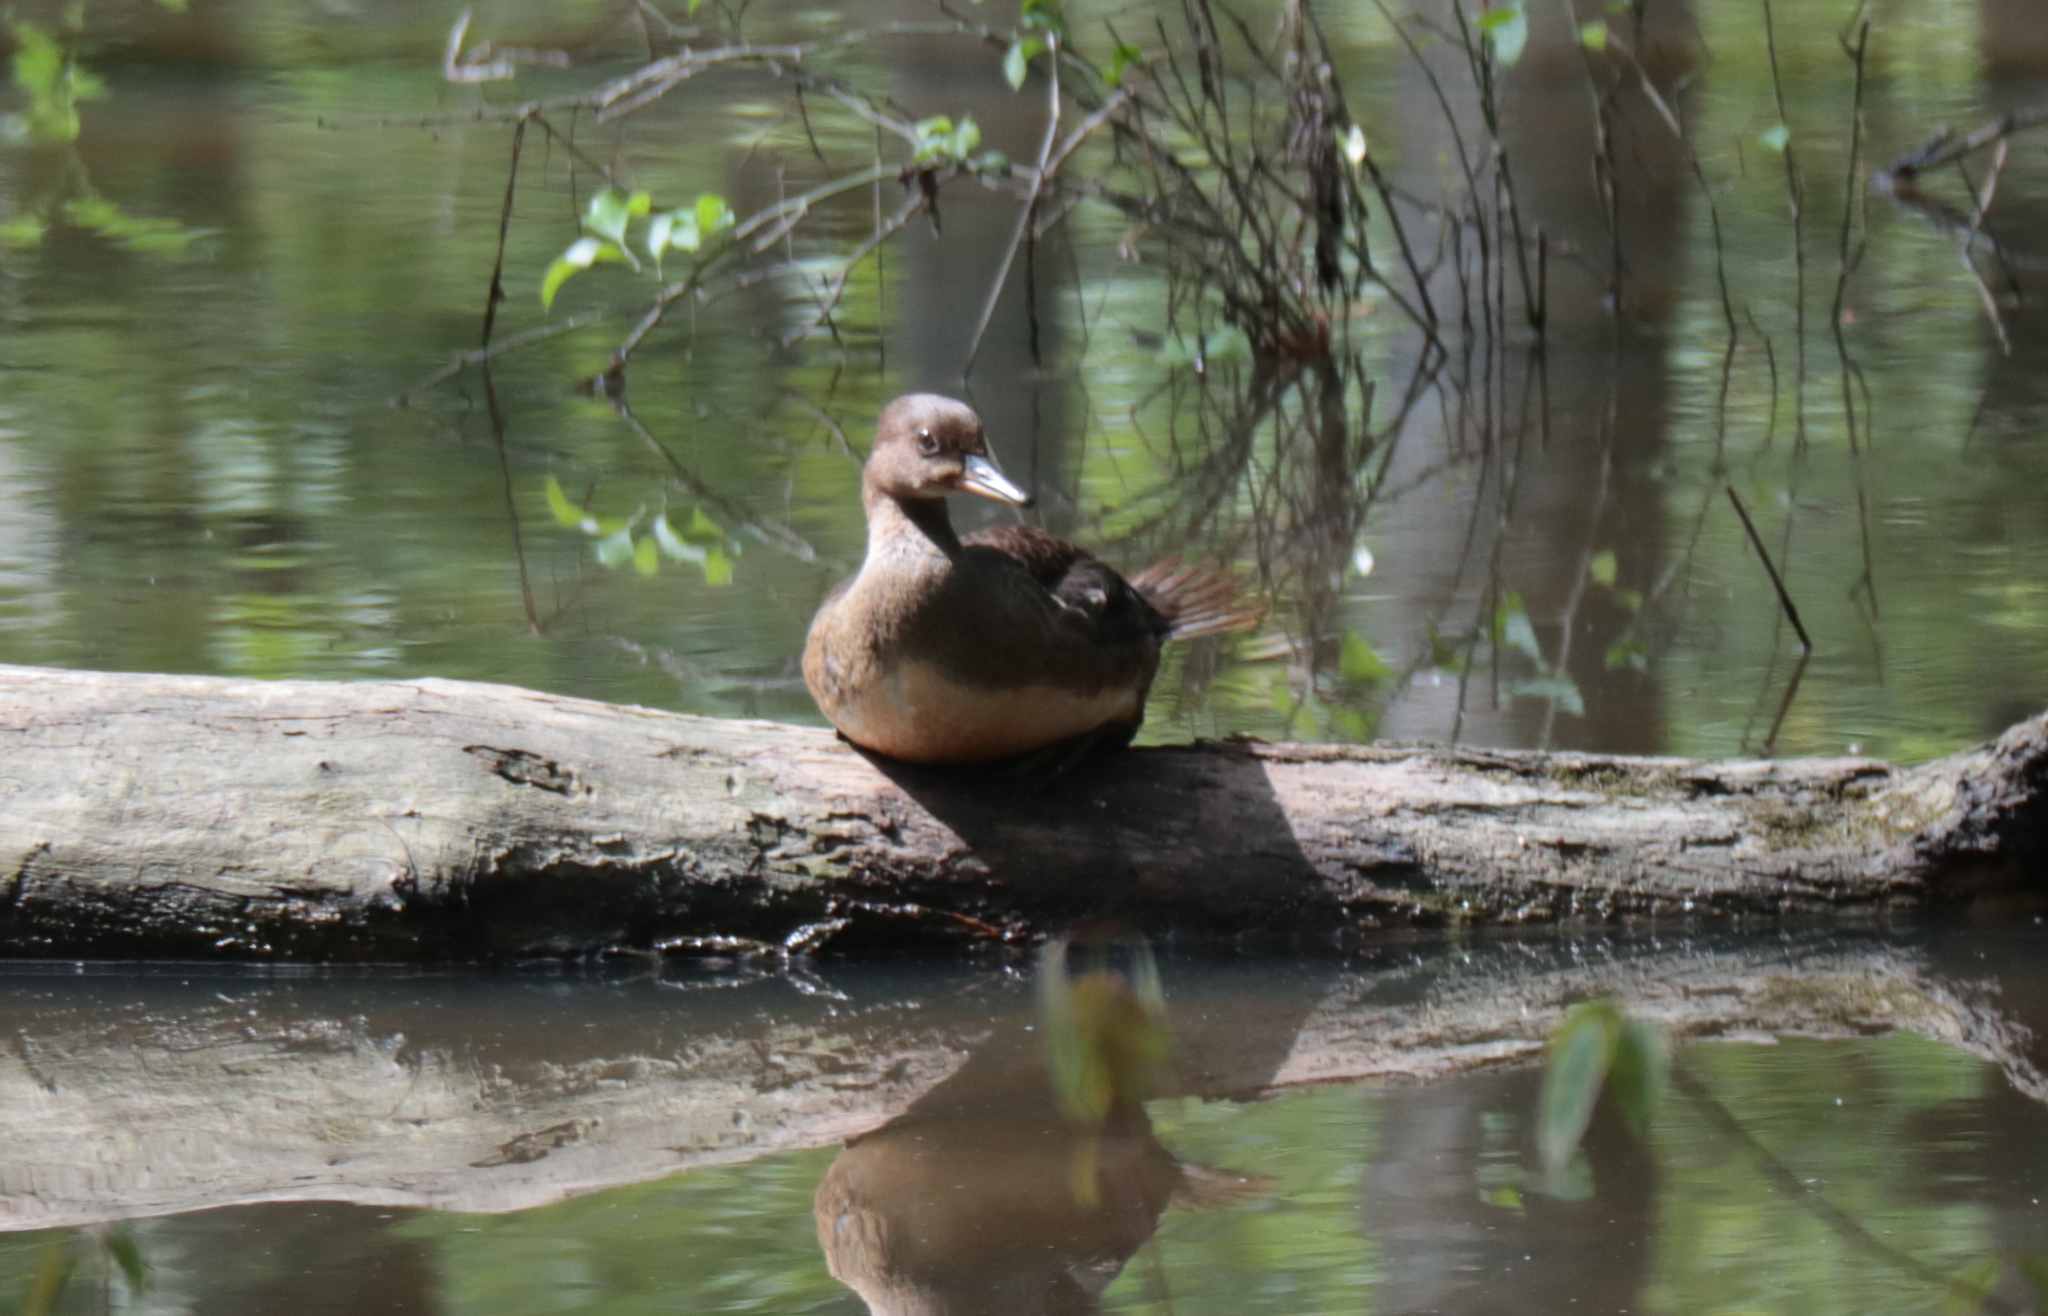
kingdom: Animalia
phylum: Chordata
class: Aves
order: Anseriformes
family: Anatidae
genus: Lophodytes
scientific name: Lophodytes cucullatus
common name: Hooded merganser
